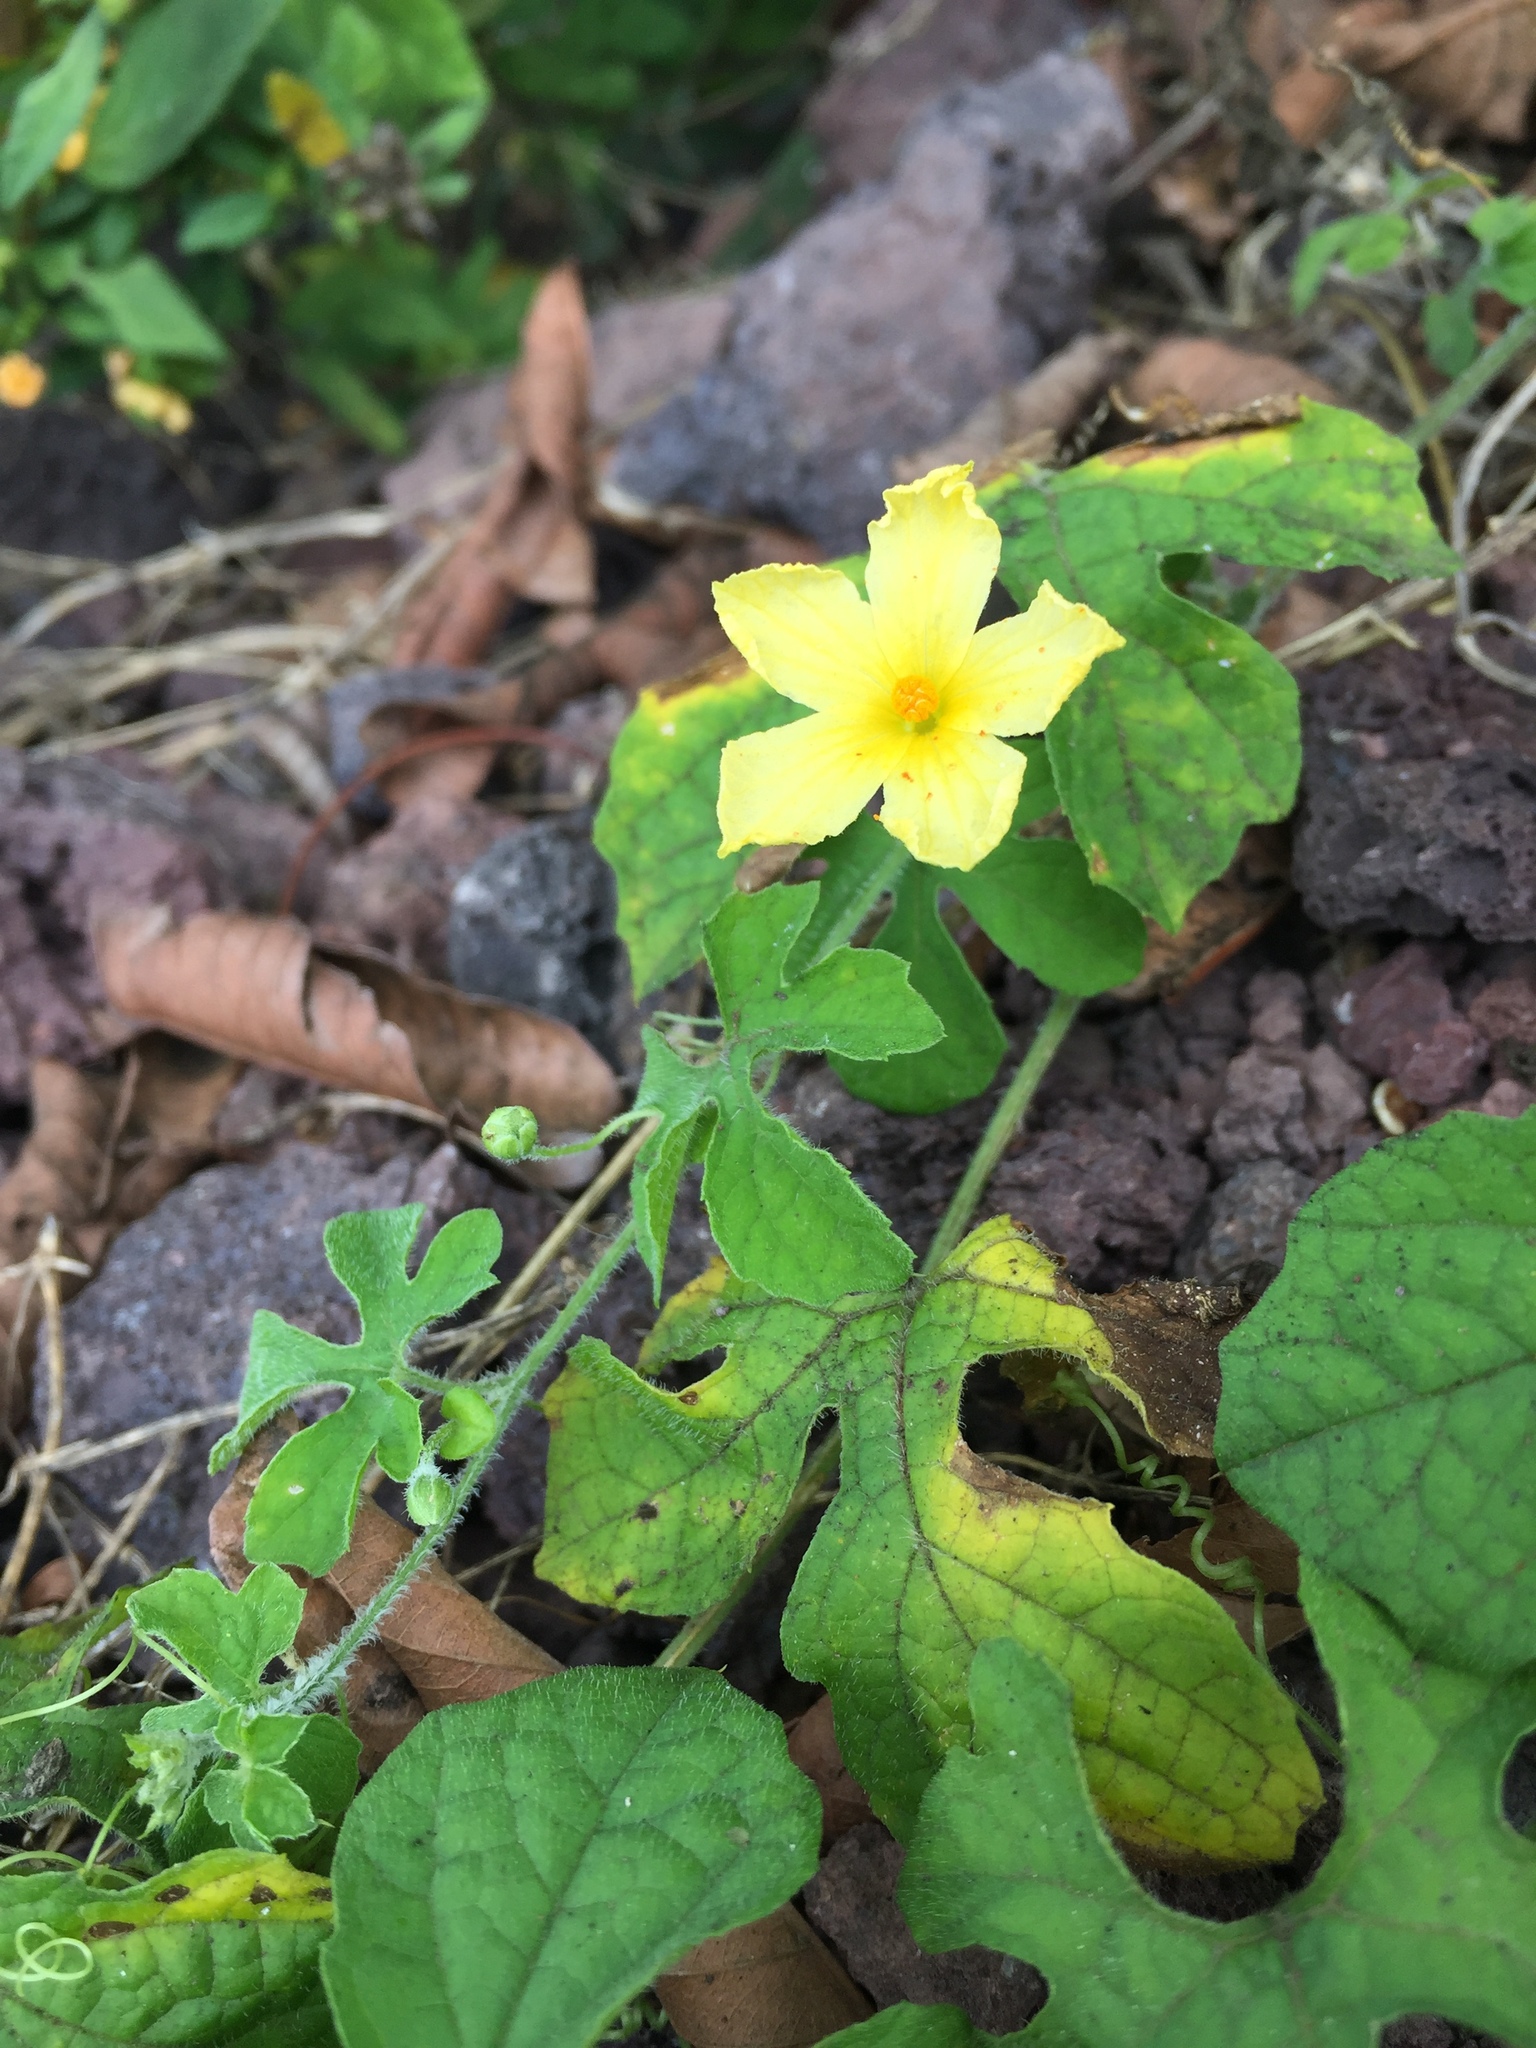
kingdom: Plantae
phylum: Tracheophyta
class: Magnoliopsida
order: Cucurbitales
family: Cucurbitaceae
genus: Momordica
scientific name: Momordica charantia
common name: Balsampear
